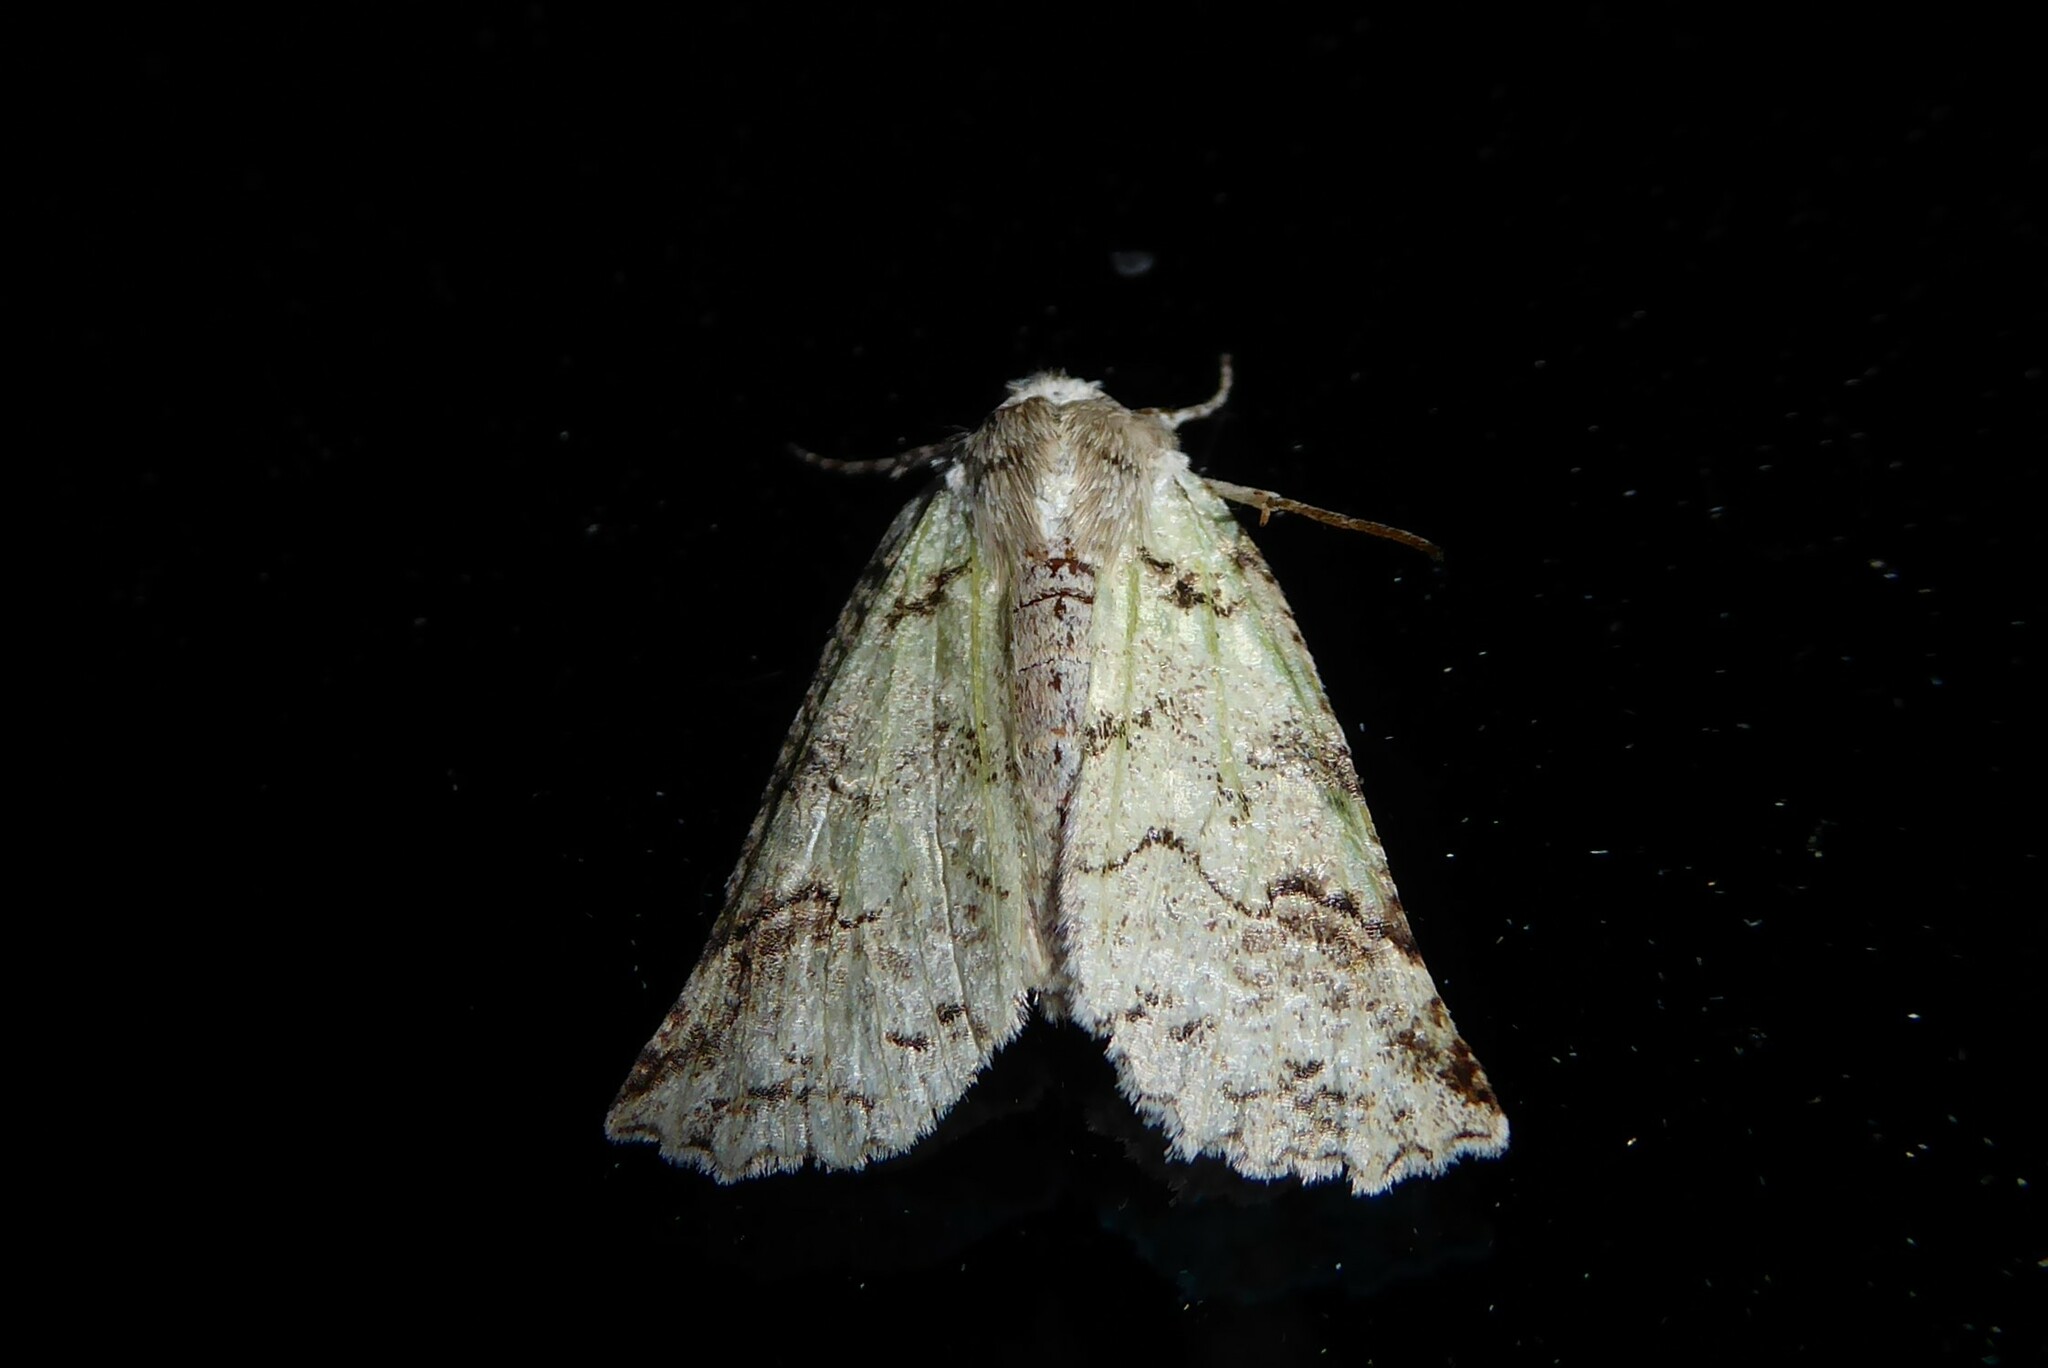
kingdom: Animalia
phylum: Arthropoda
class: Insecta
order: Lepidoptera
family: Geometridae
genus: Declana
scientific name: Declana floccosa
